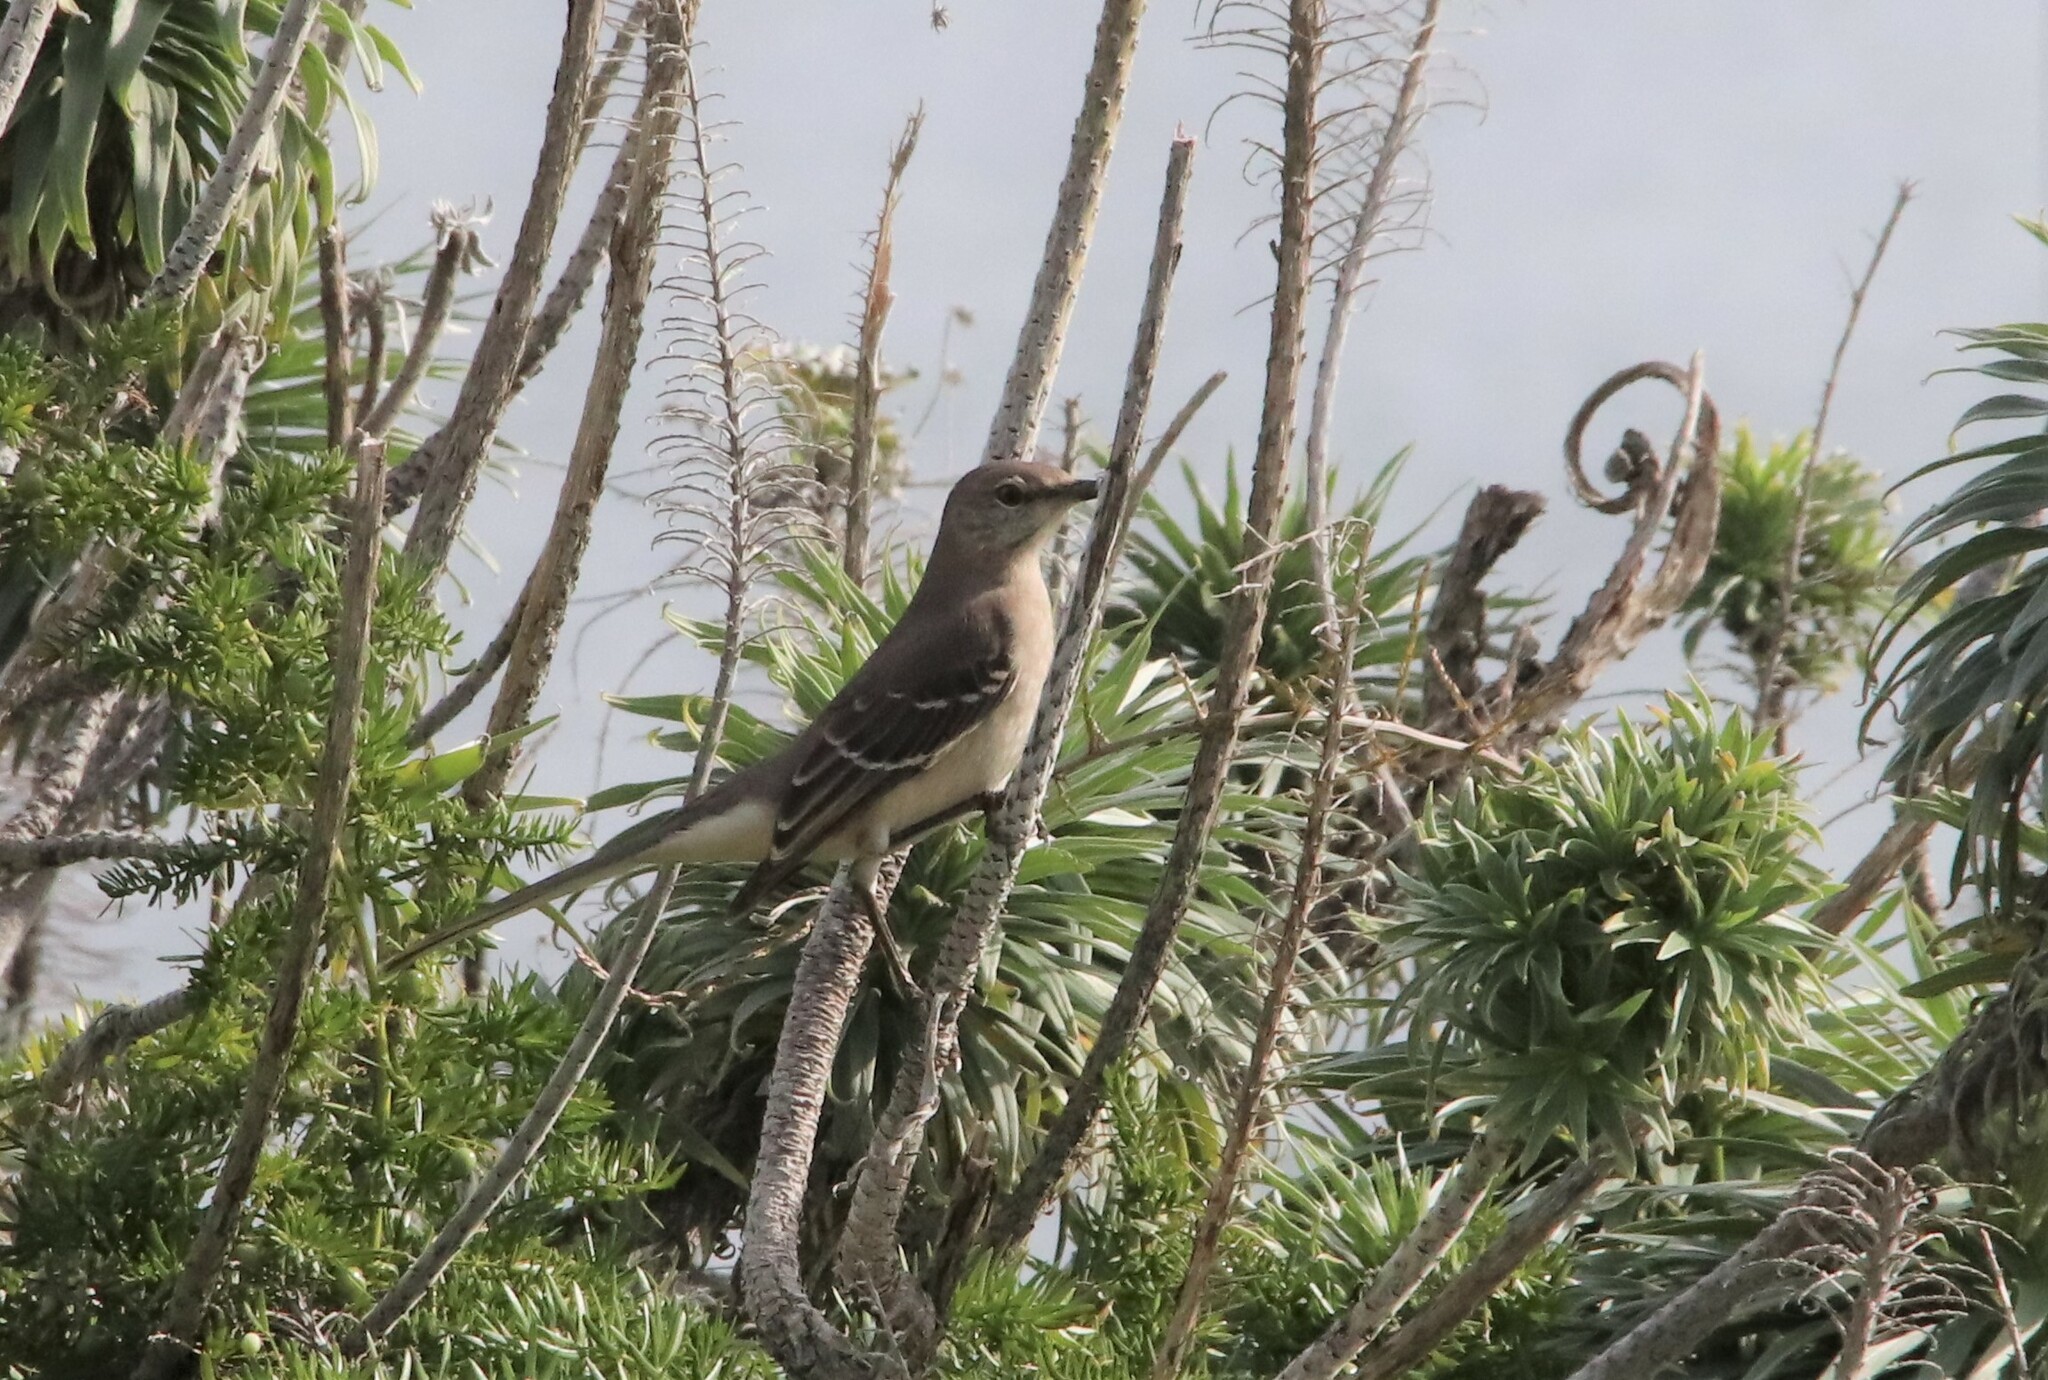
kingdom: Animalia
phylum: Chordata
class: Aves
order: Passeriformes
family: Mimidae
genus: Mimus
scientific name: Mimus polyglottos
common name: Northern mockingbird
